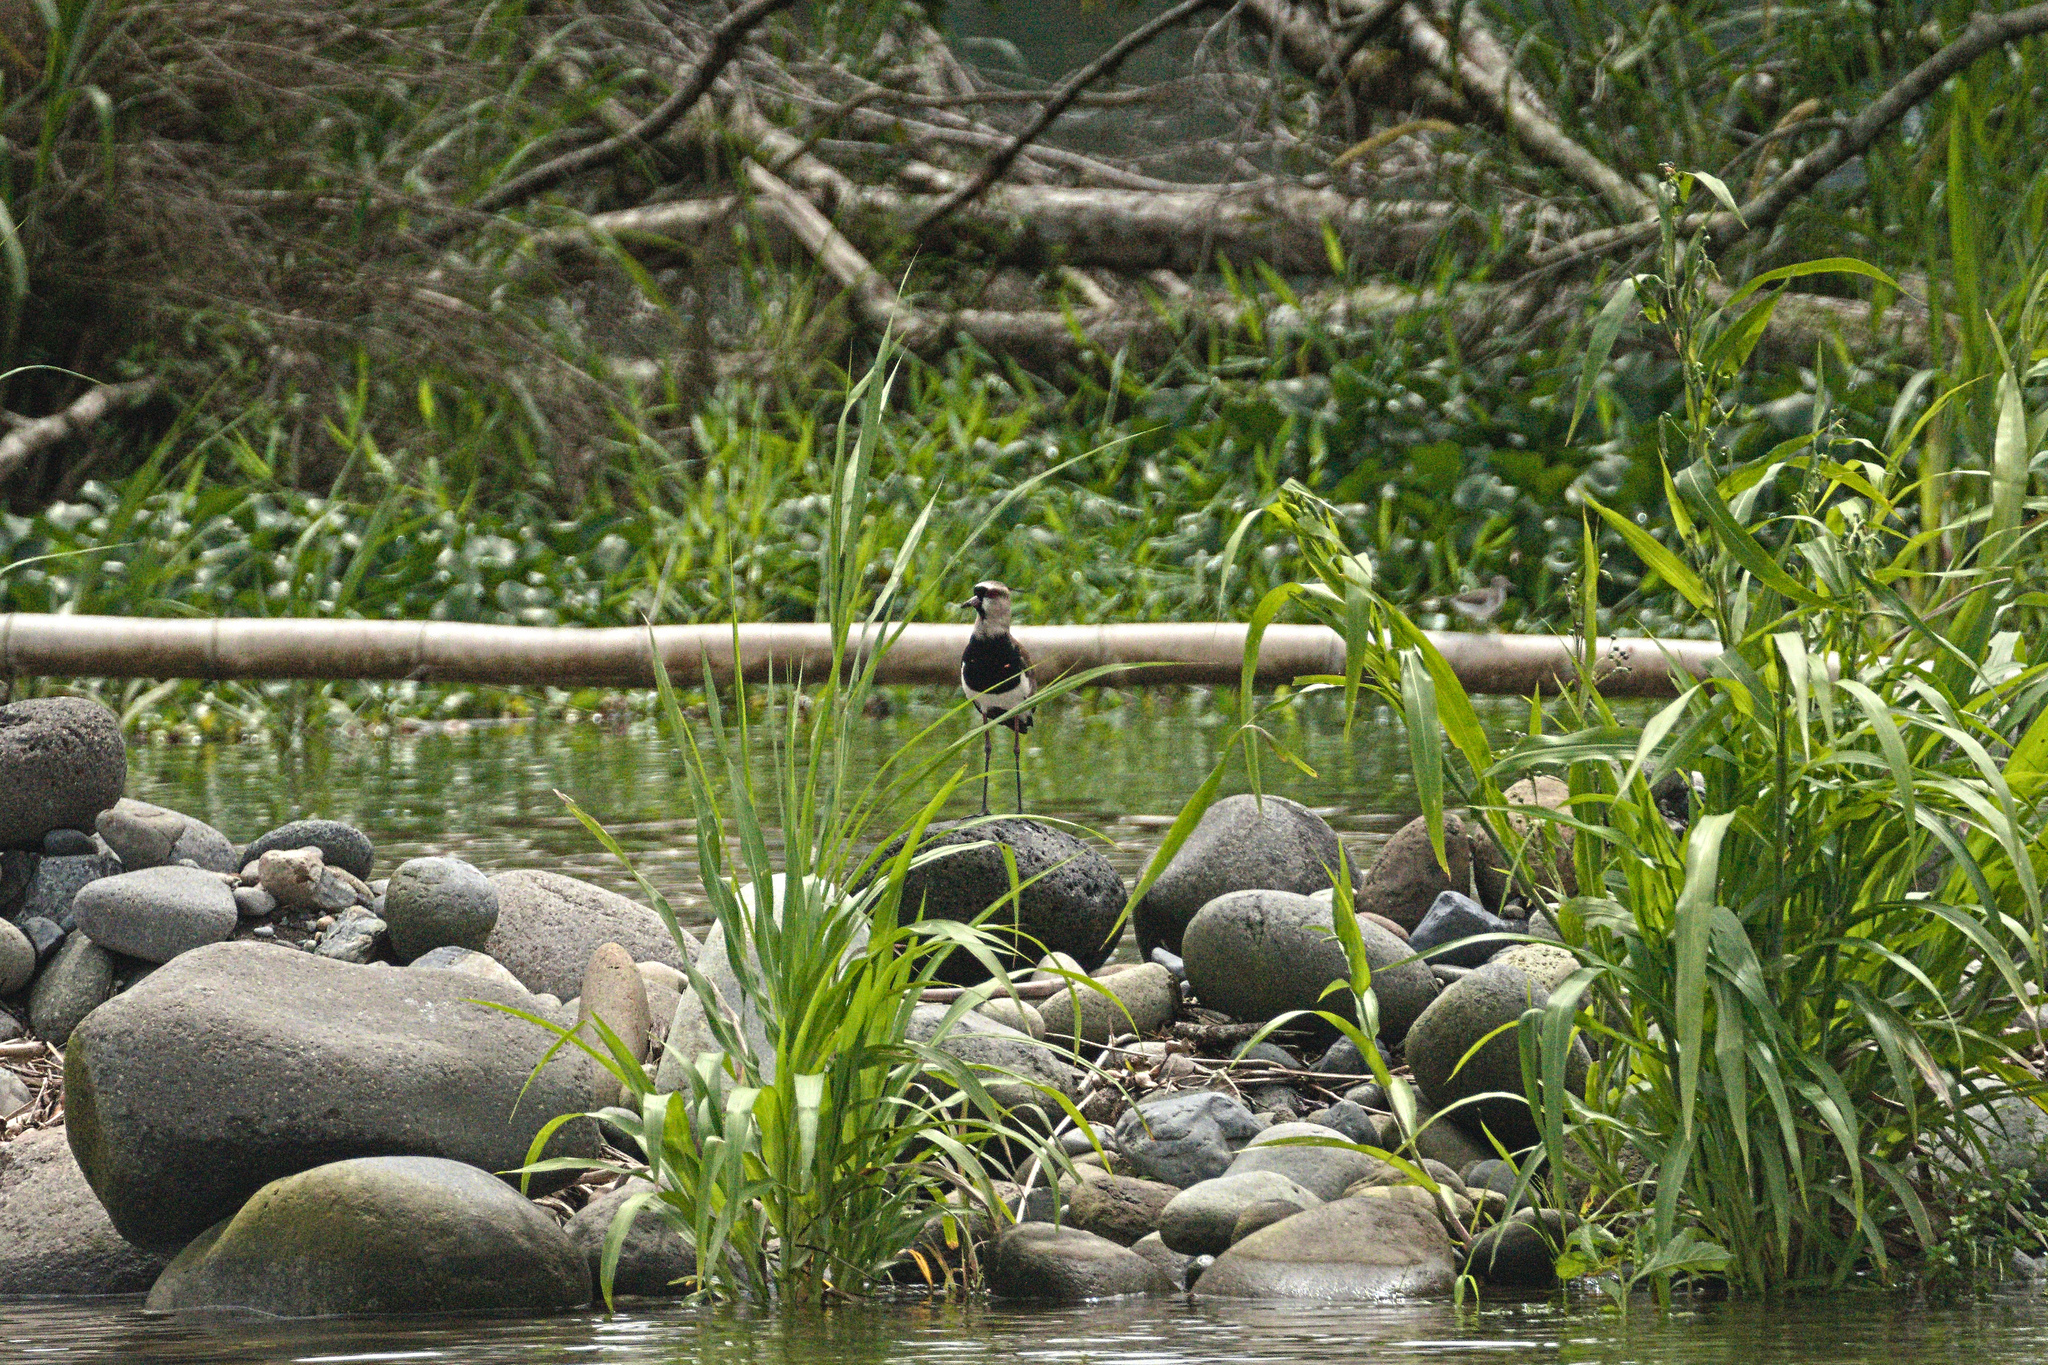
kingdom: Animalia
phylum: Chordata
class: Aves
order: Charadriiformes
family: Charadriidae
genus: Vanellus
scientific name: Vanellus chilensis
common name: Southern lapwing
